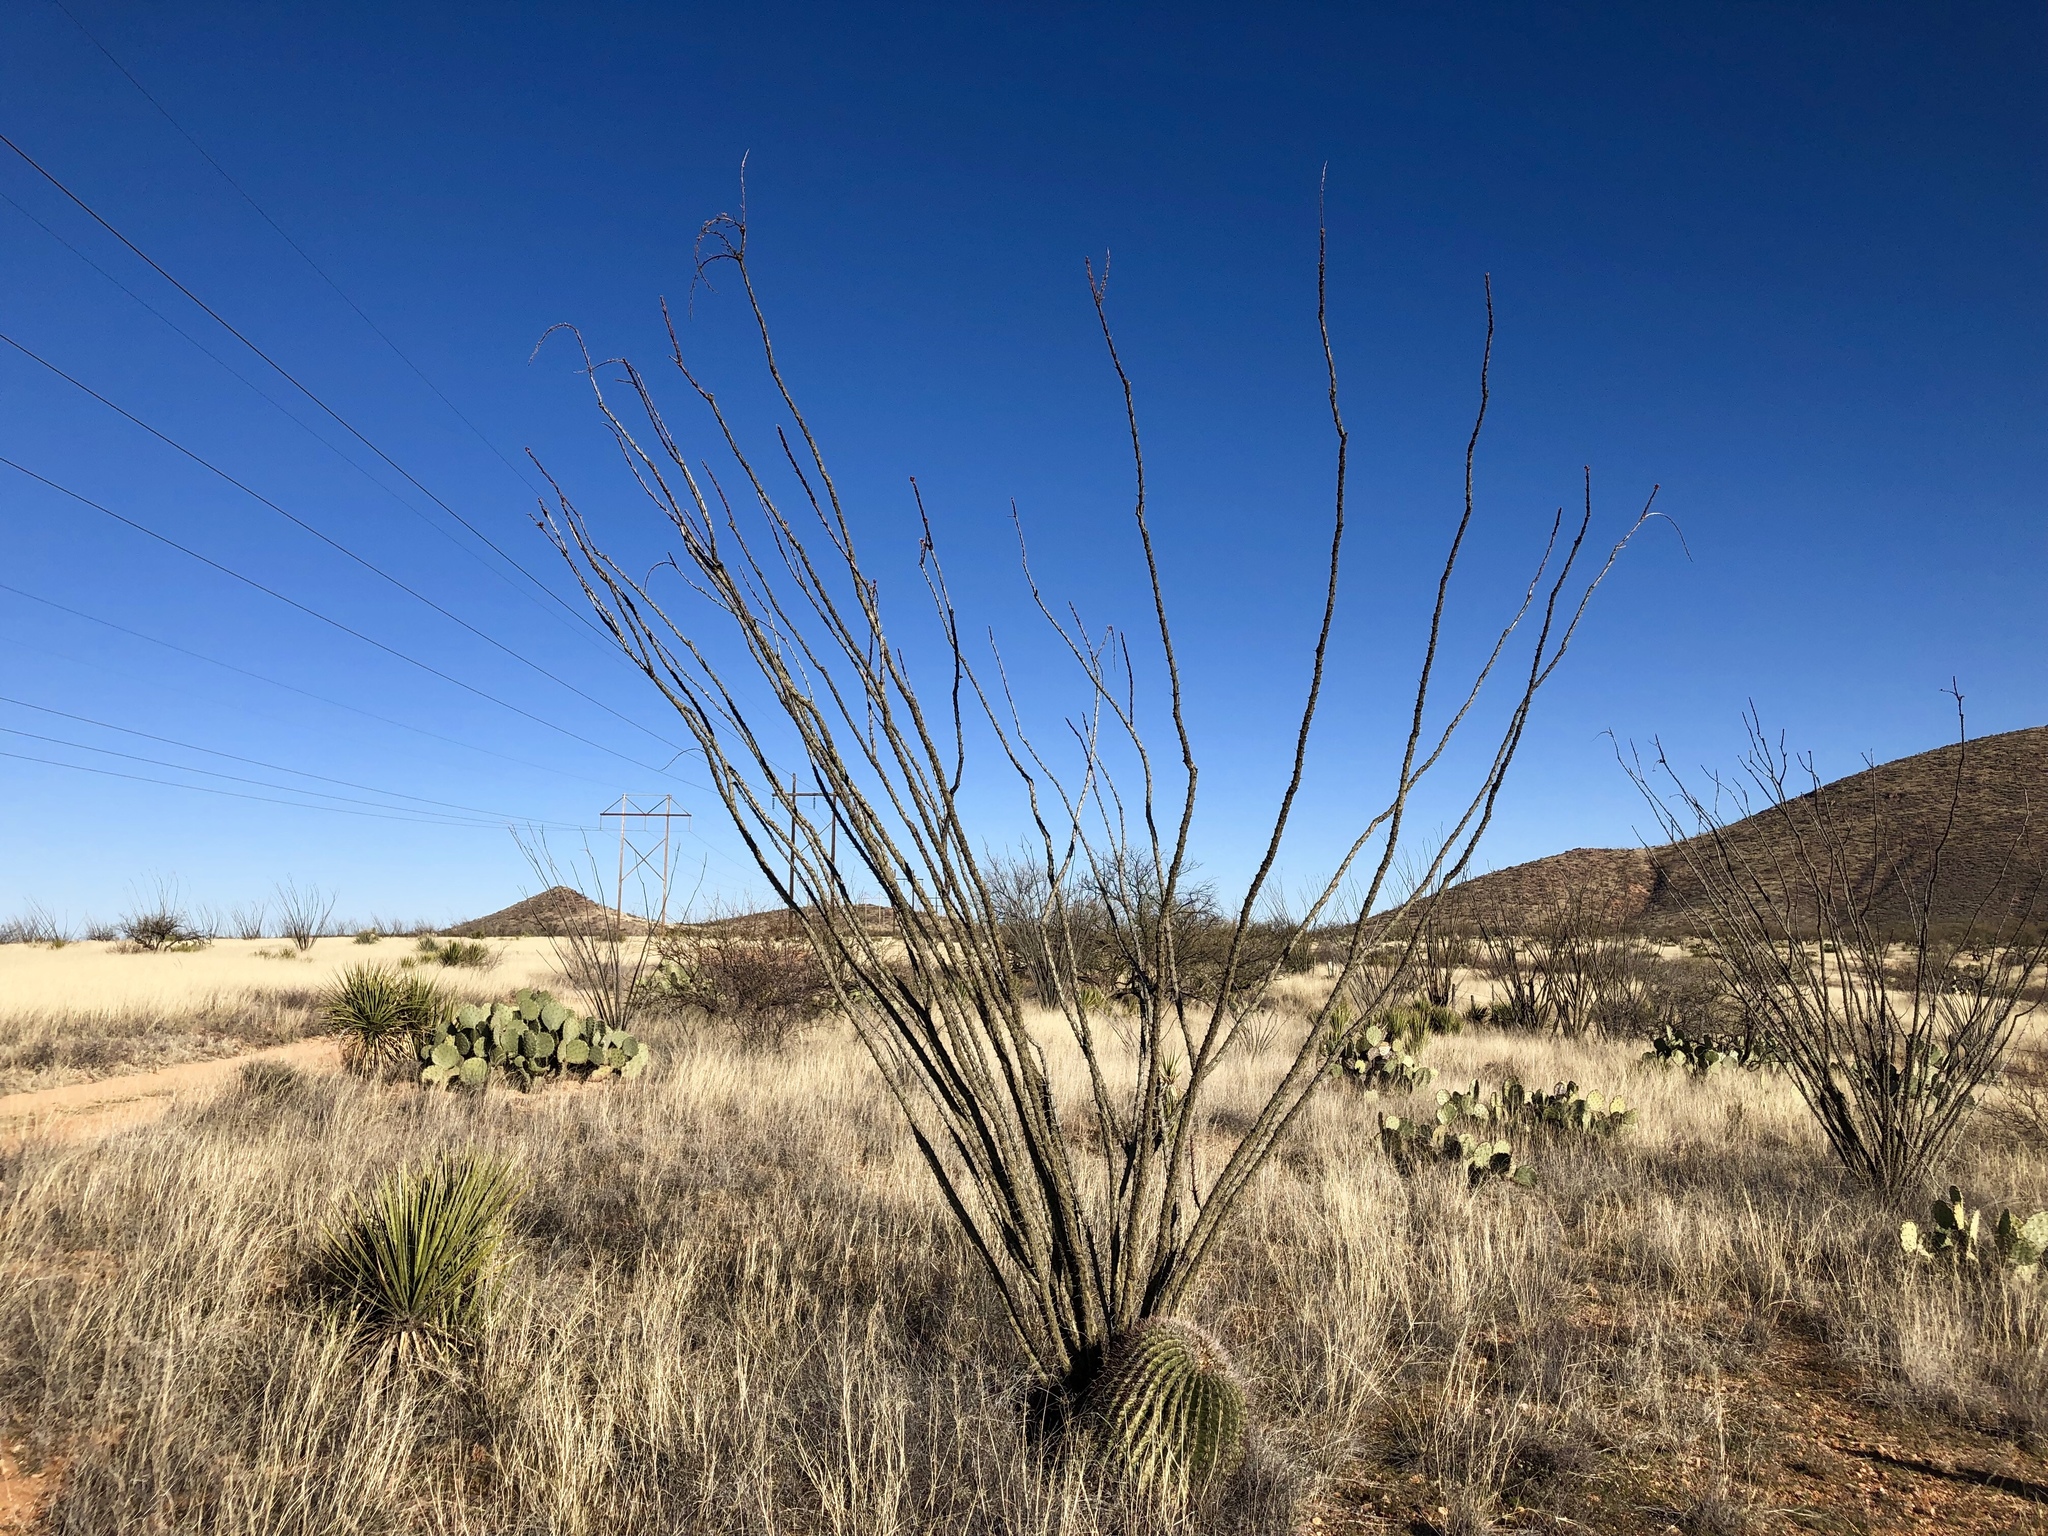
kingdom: Plantae
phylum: Tracheophyta
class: Magnoliopsida
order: Ericales
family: Fouquieriaceae
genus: Fouquieria
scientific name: Fouquieria splendens
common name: Vine-cactus
